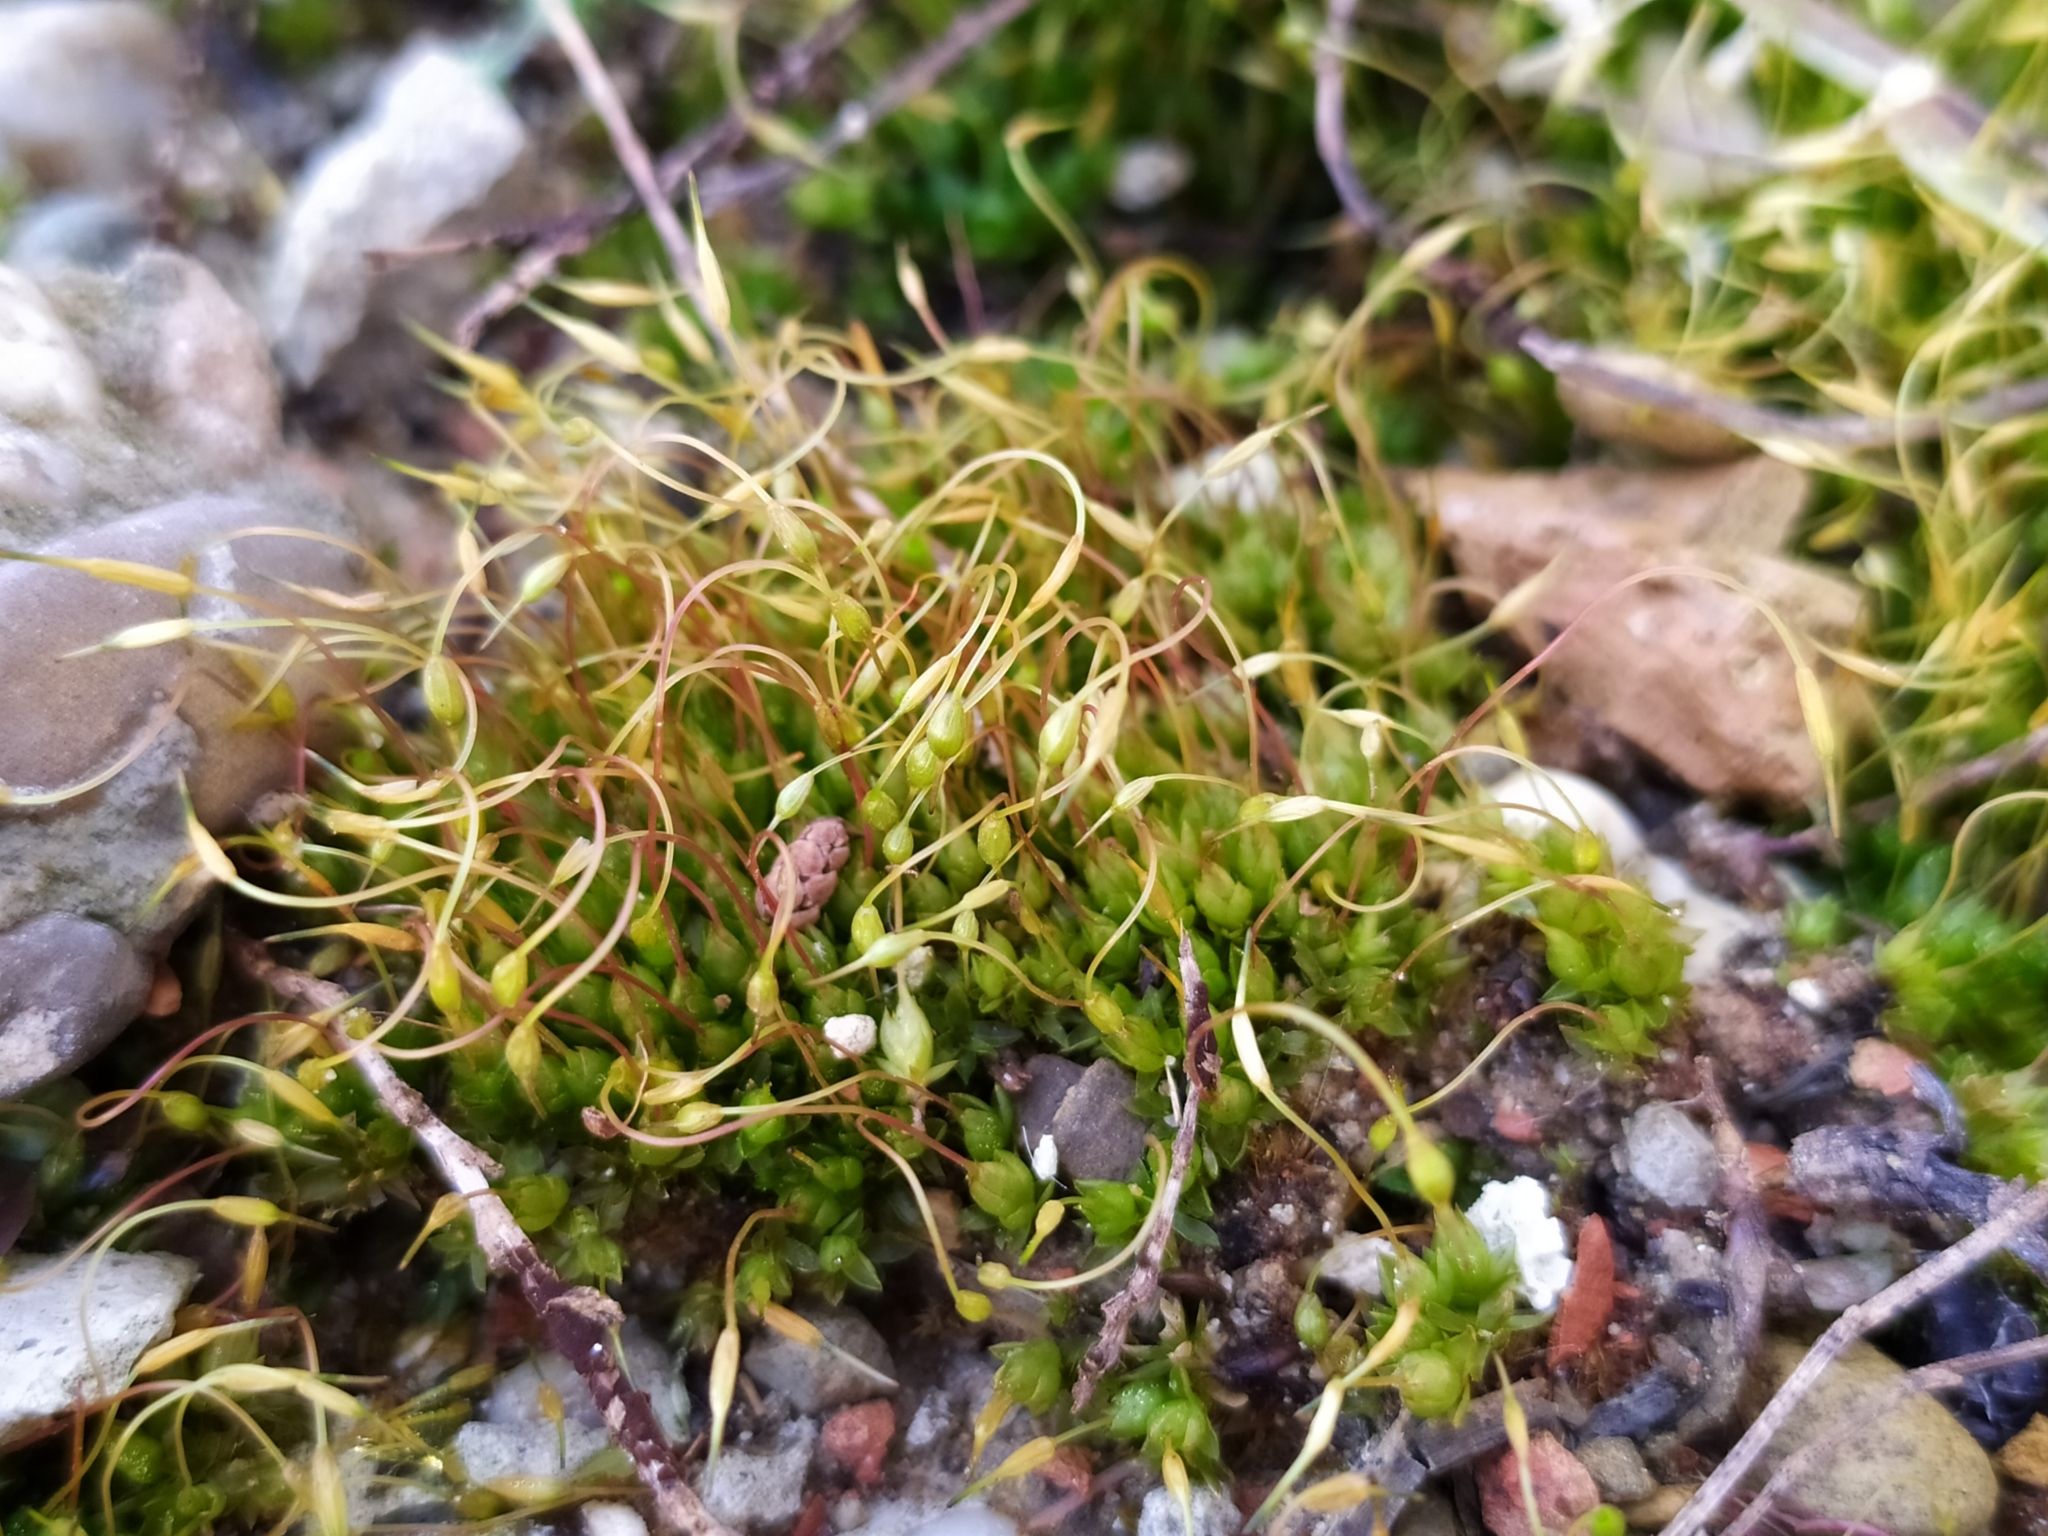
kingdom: Plantae
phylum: Bryophyta
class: Bryopsida
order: Funariales
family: Funariaceae
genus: Funaria
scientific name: Funaria hygrometrica
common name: Common cord moss
